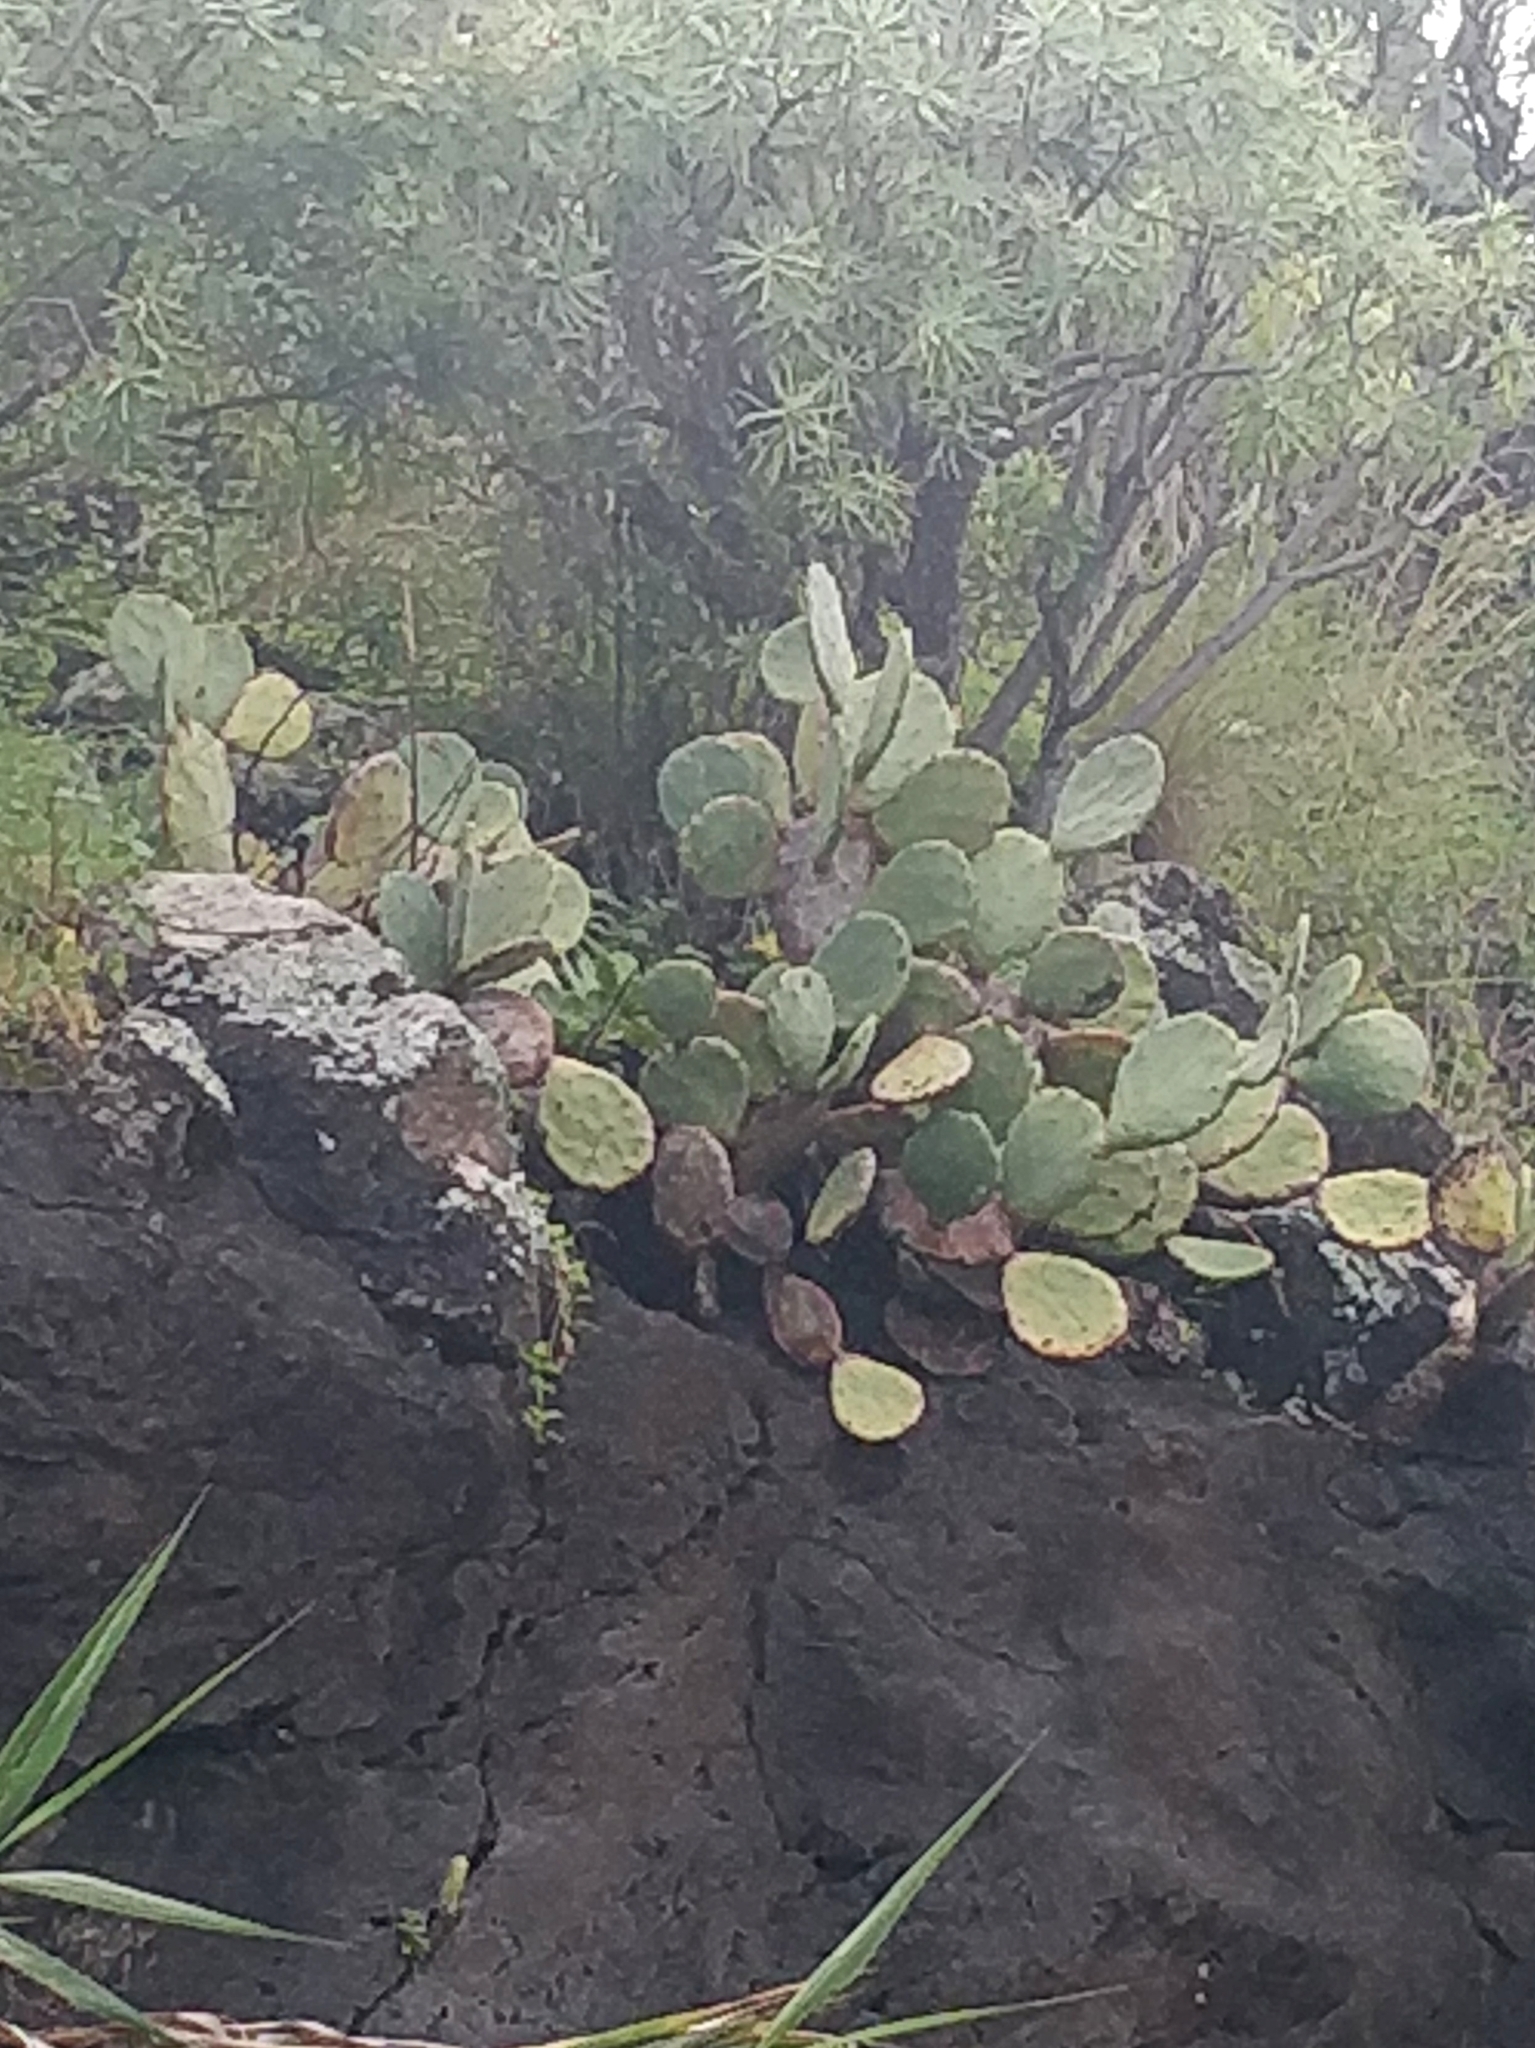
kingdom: Plantae
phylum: Tracheophyta
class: Magnoliopsida
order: Caryophyllales
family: Cactaceae
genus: Opuntia
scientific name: Opuntia ficus-indica
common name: Barbary fig
